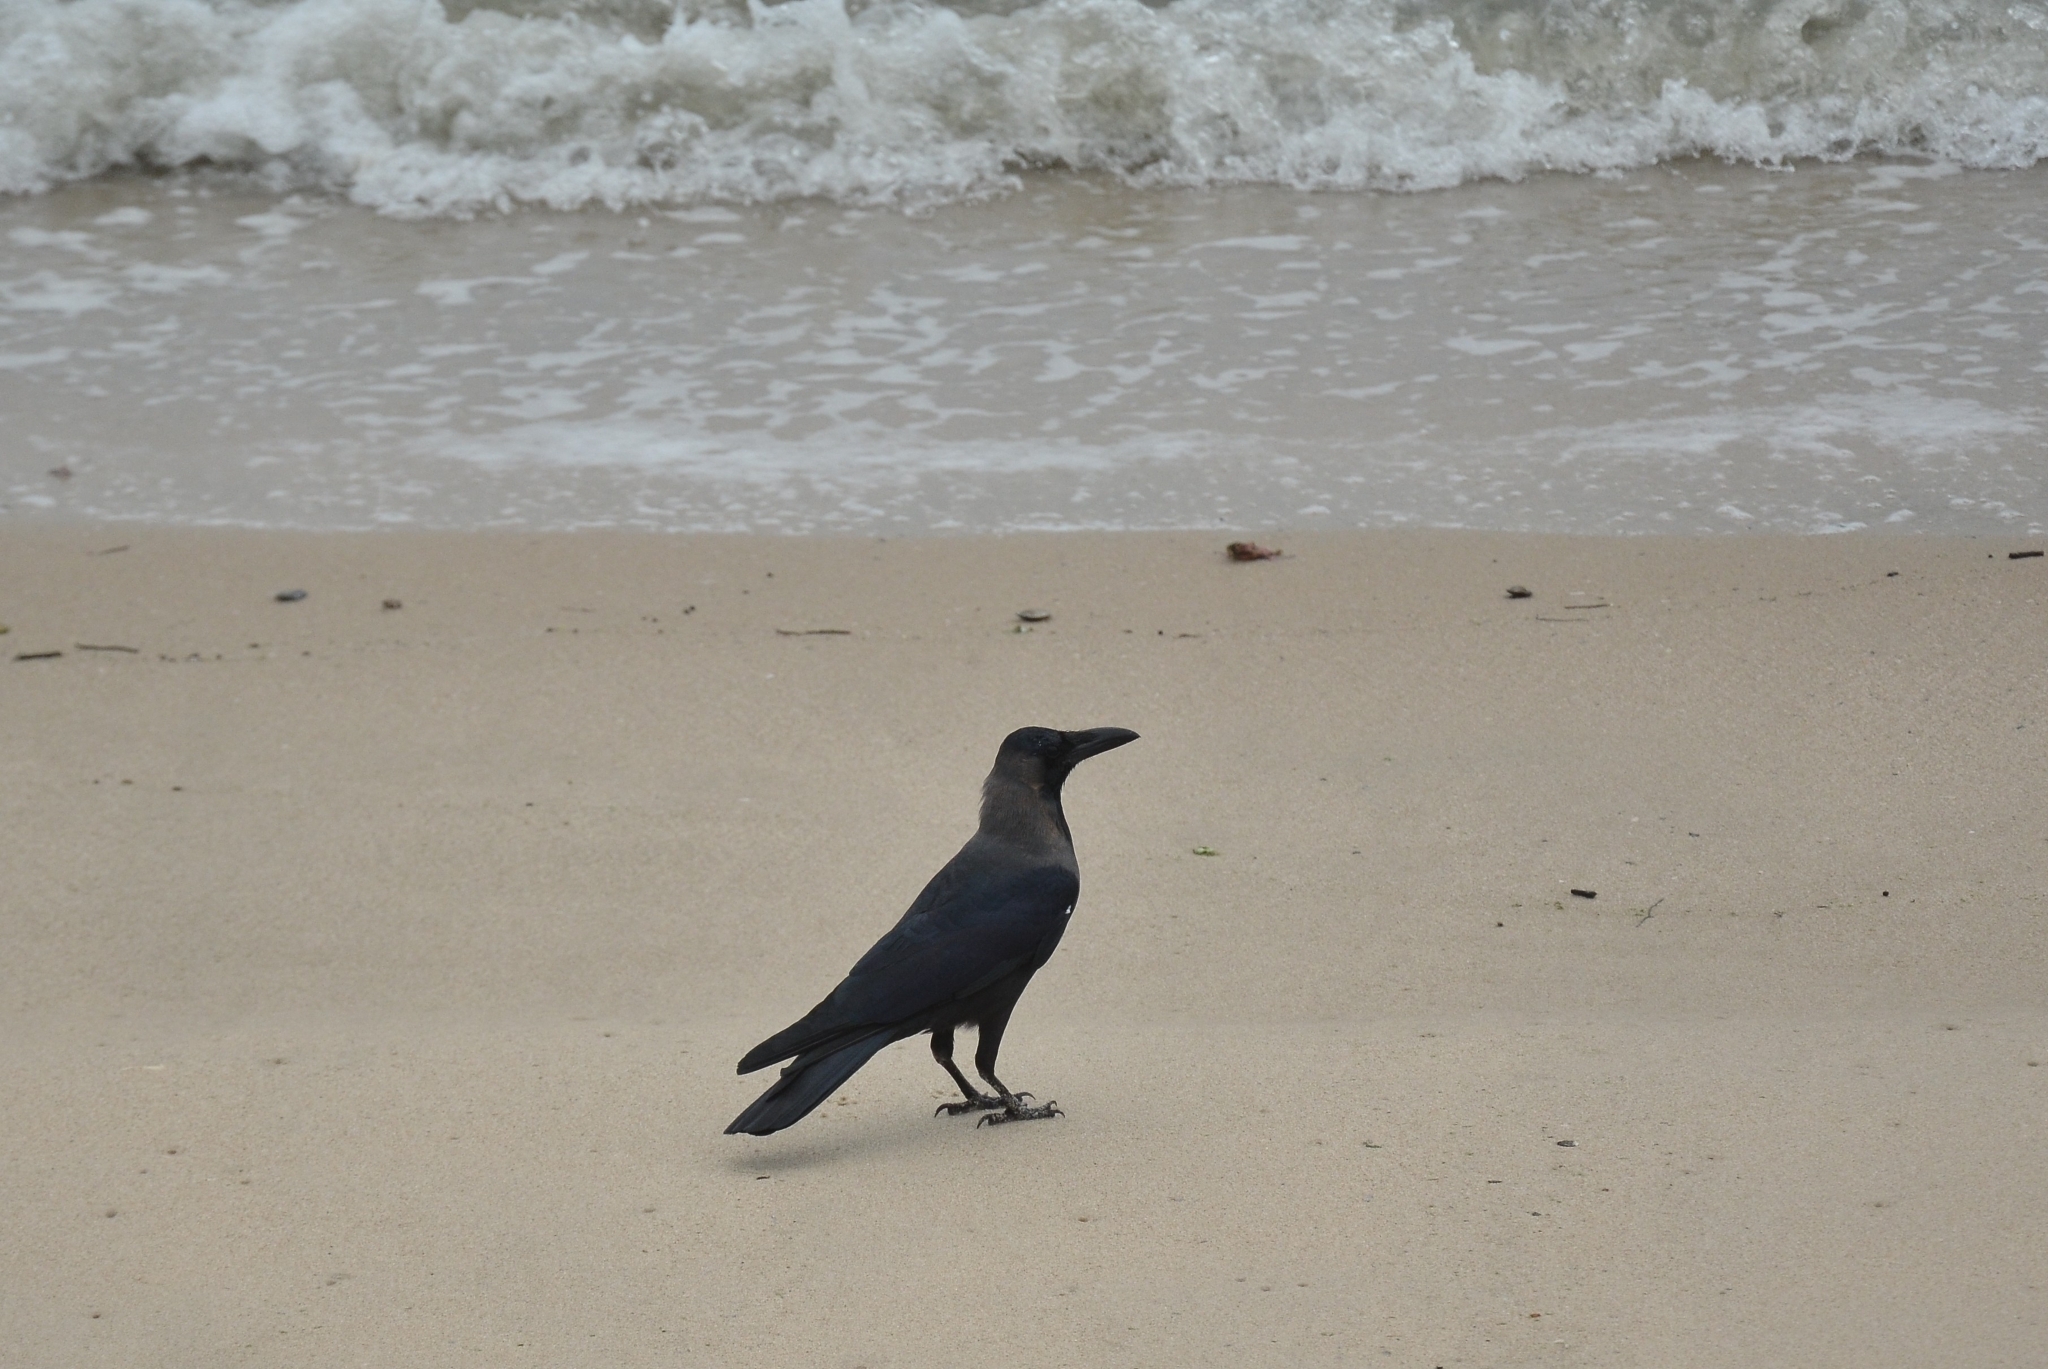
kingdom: Animalia
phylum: Chordata
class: Aves
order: Passeriformes
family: Corvidae
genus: Corvus
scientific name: Corvus splendens
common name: House crow
